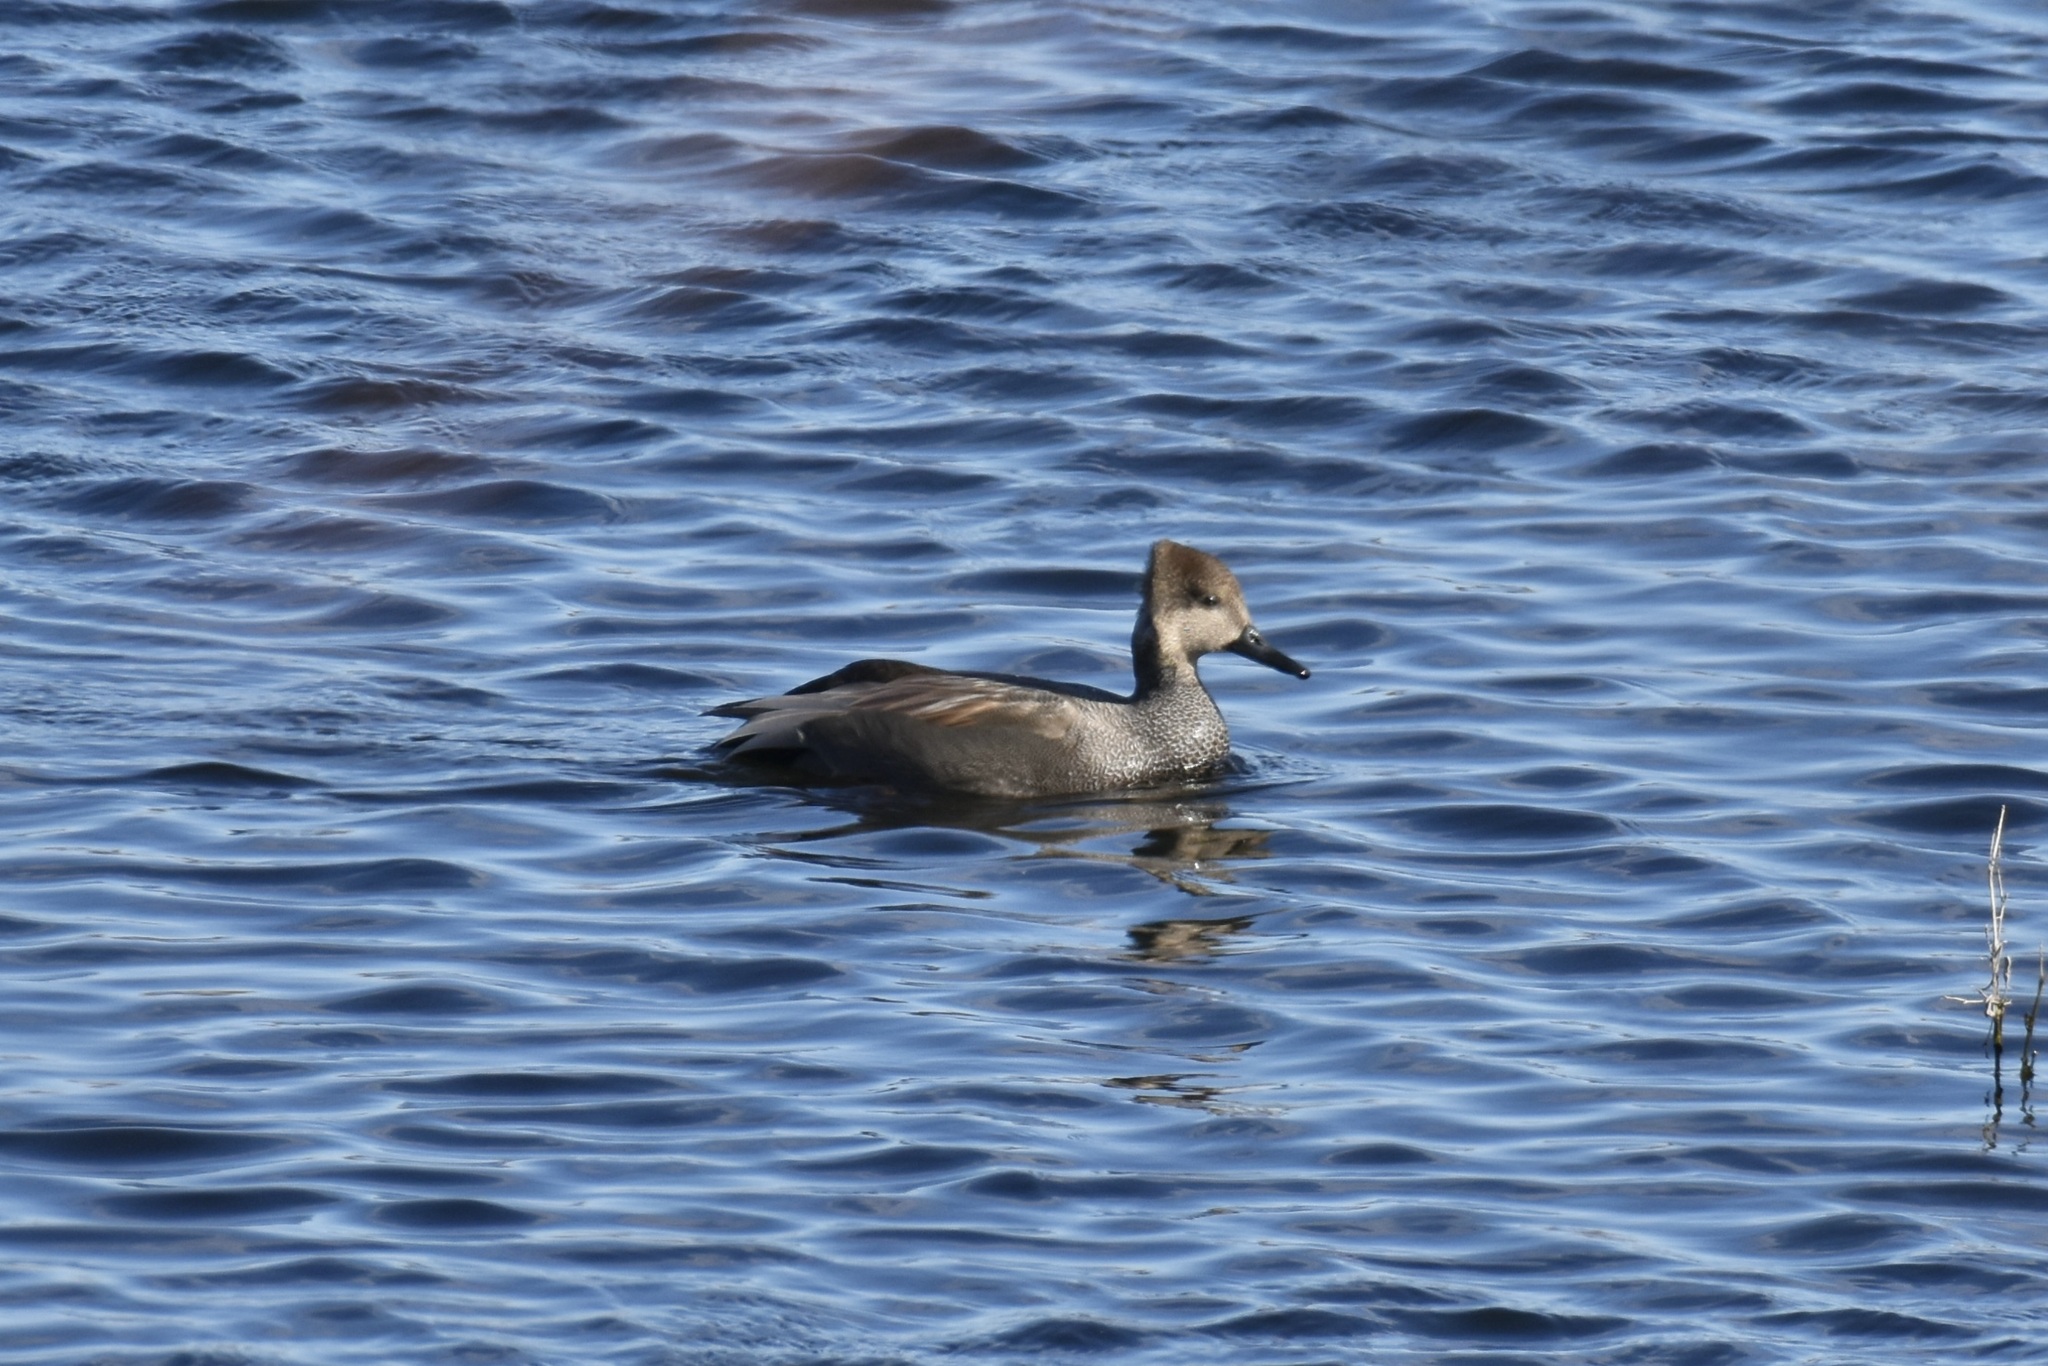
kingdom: Animalia
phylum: Chordata
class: Aves
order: Anseriformes
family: Anatidae
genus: Mareca
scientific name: Mareca strepera
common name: Gadwall
